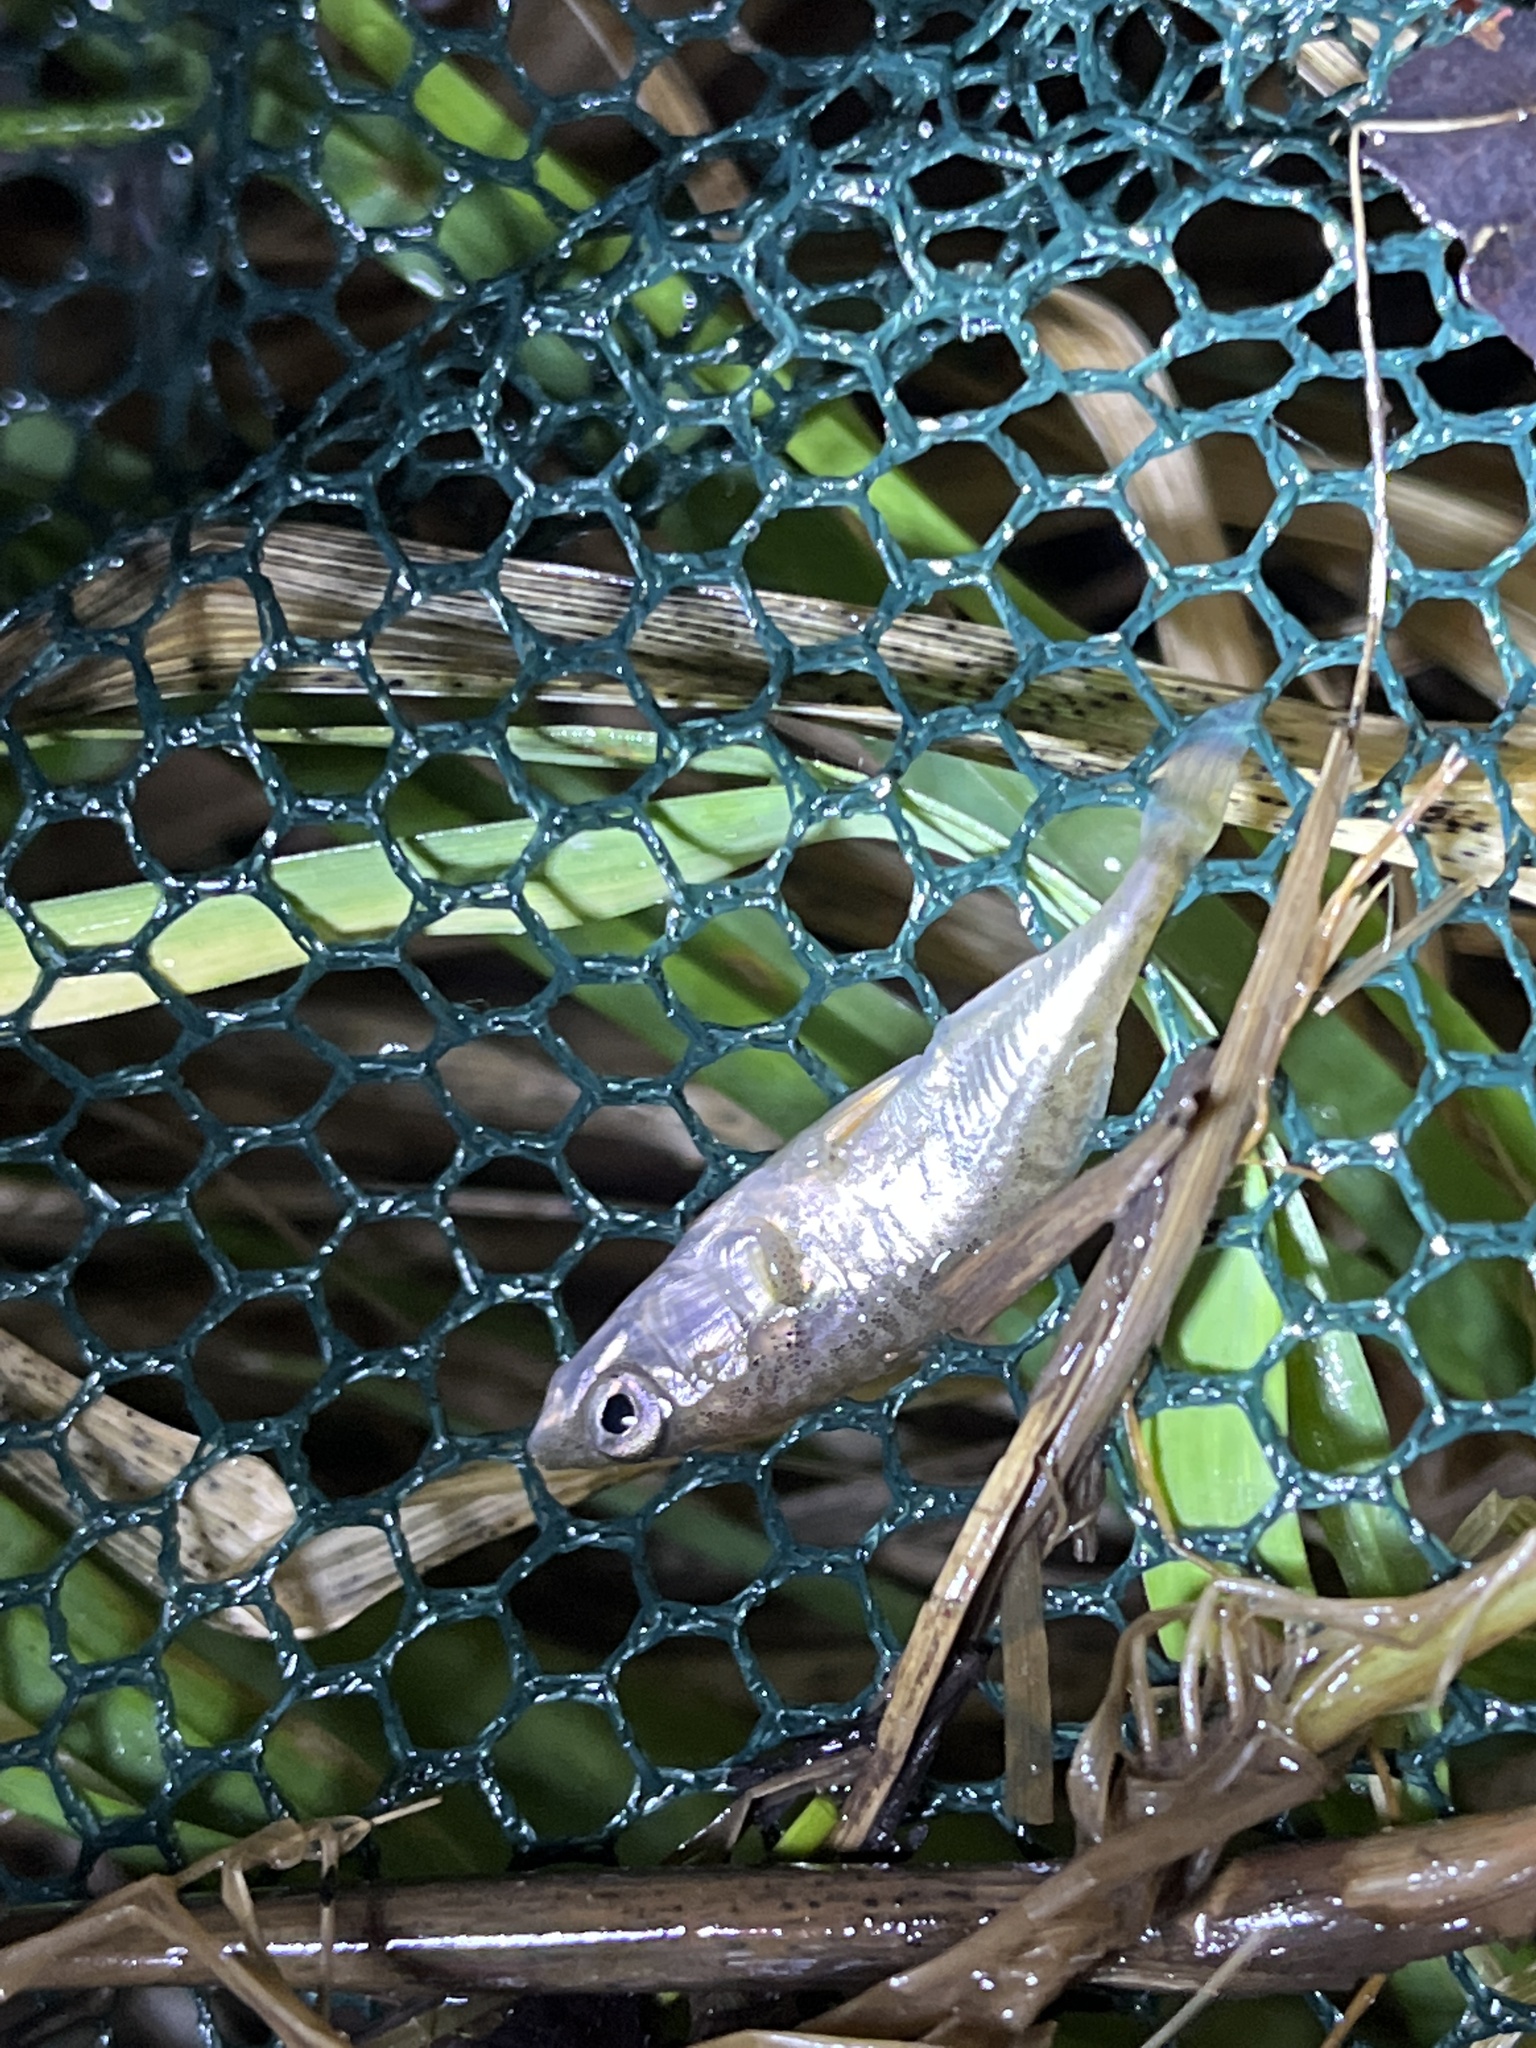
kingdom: Animalia
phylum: Chordata
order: Gasterosteiformes
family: Gasterosteidae
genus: Gasterosteus
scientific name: Gasterosteus aculeatus
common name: Three-spined stickleback
